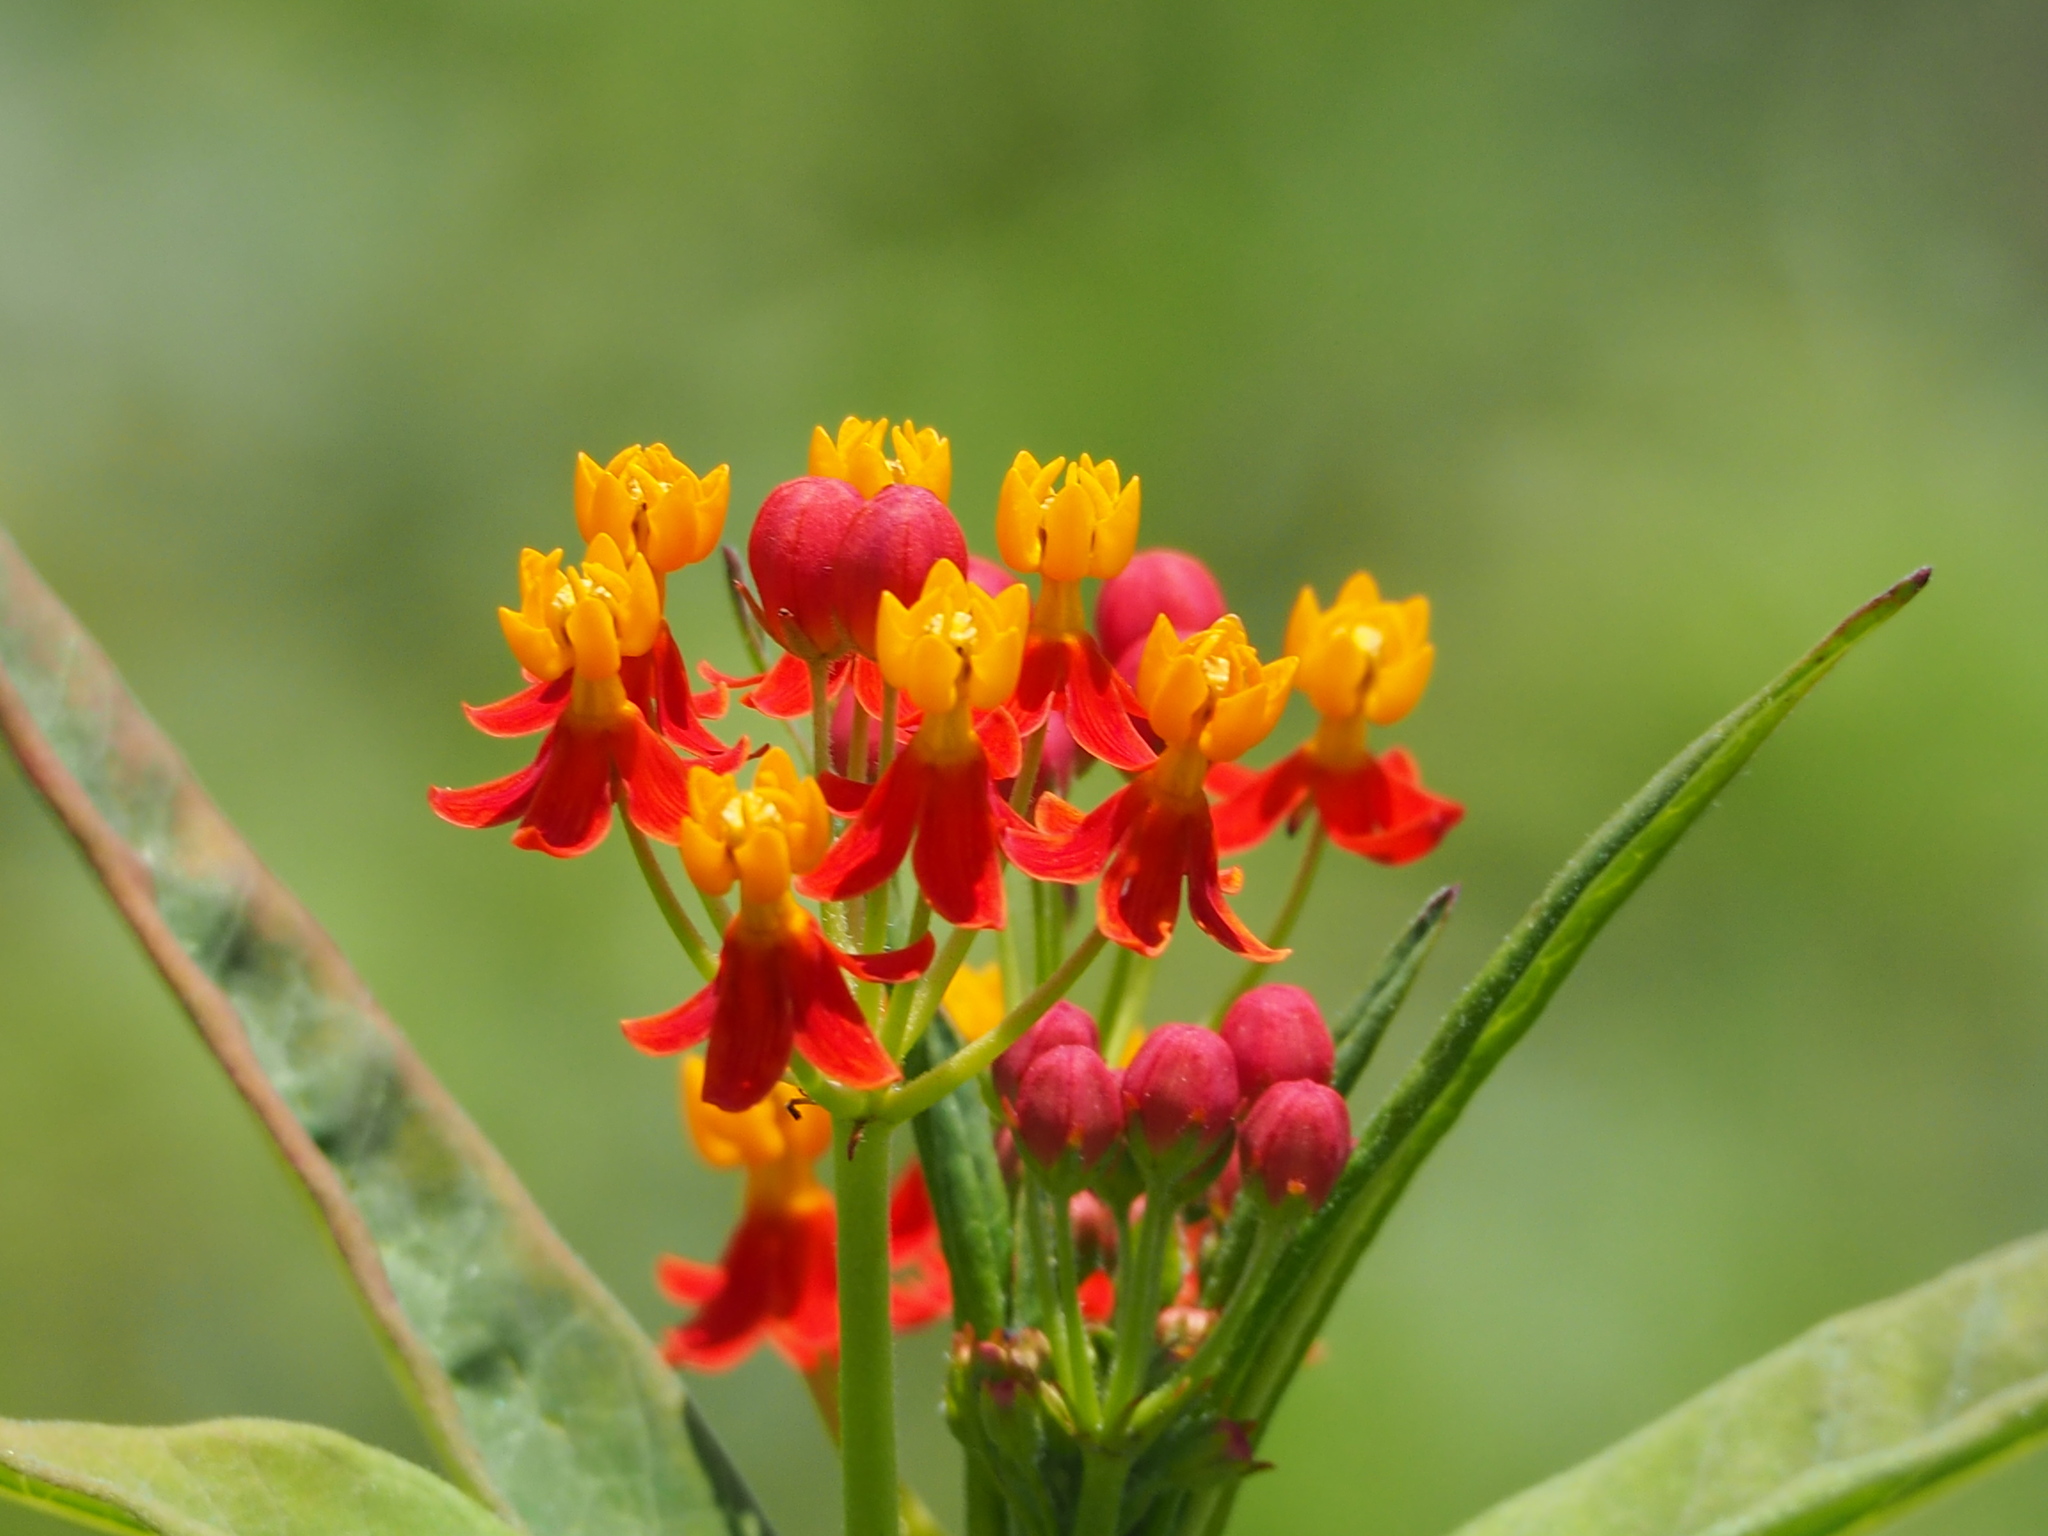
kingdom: Plantae
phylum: Tracheophyta
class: Magnoliopsida
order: Gentianales
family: Apocynaceae
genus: Asclepias
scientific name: Asclepias curassavica
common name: Bloodflower
